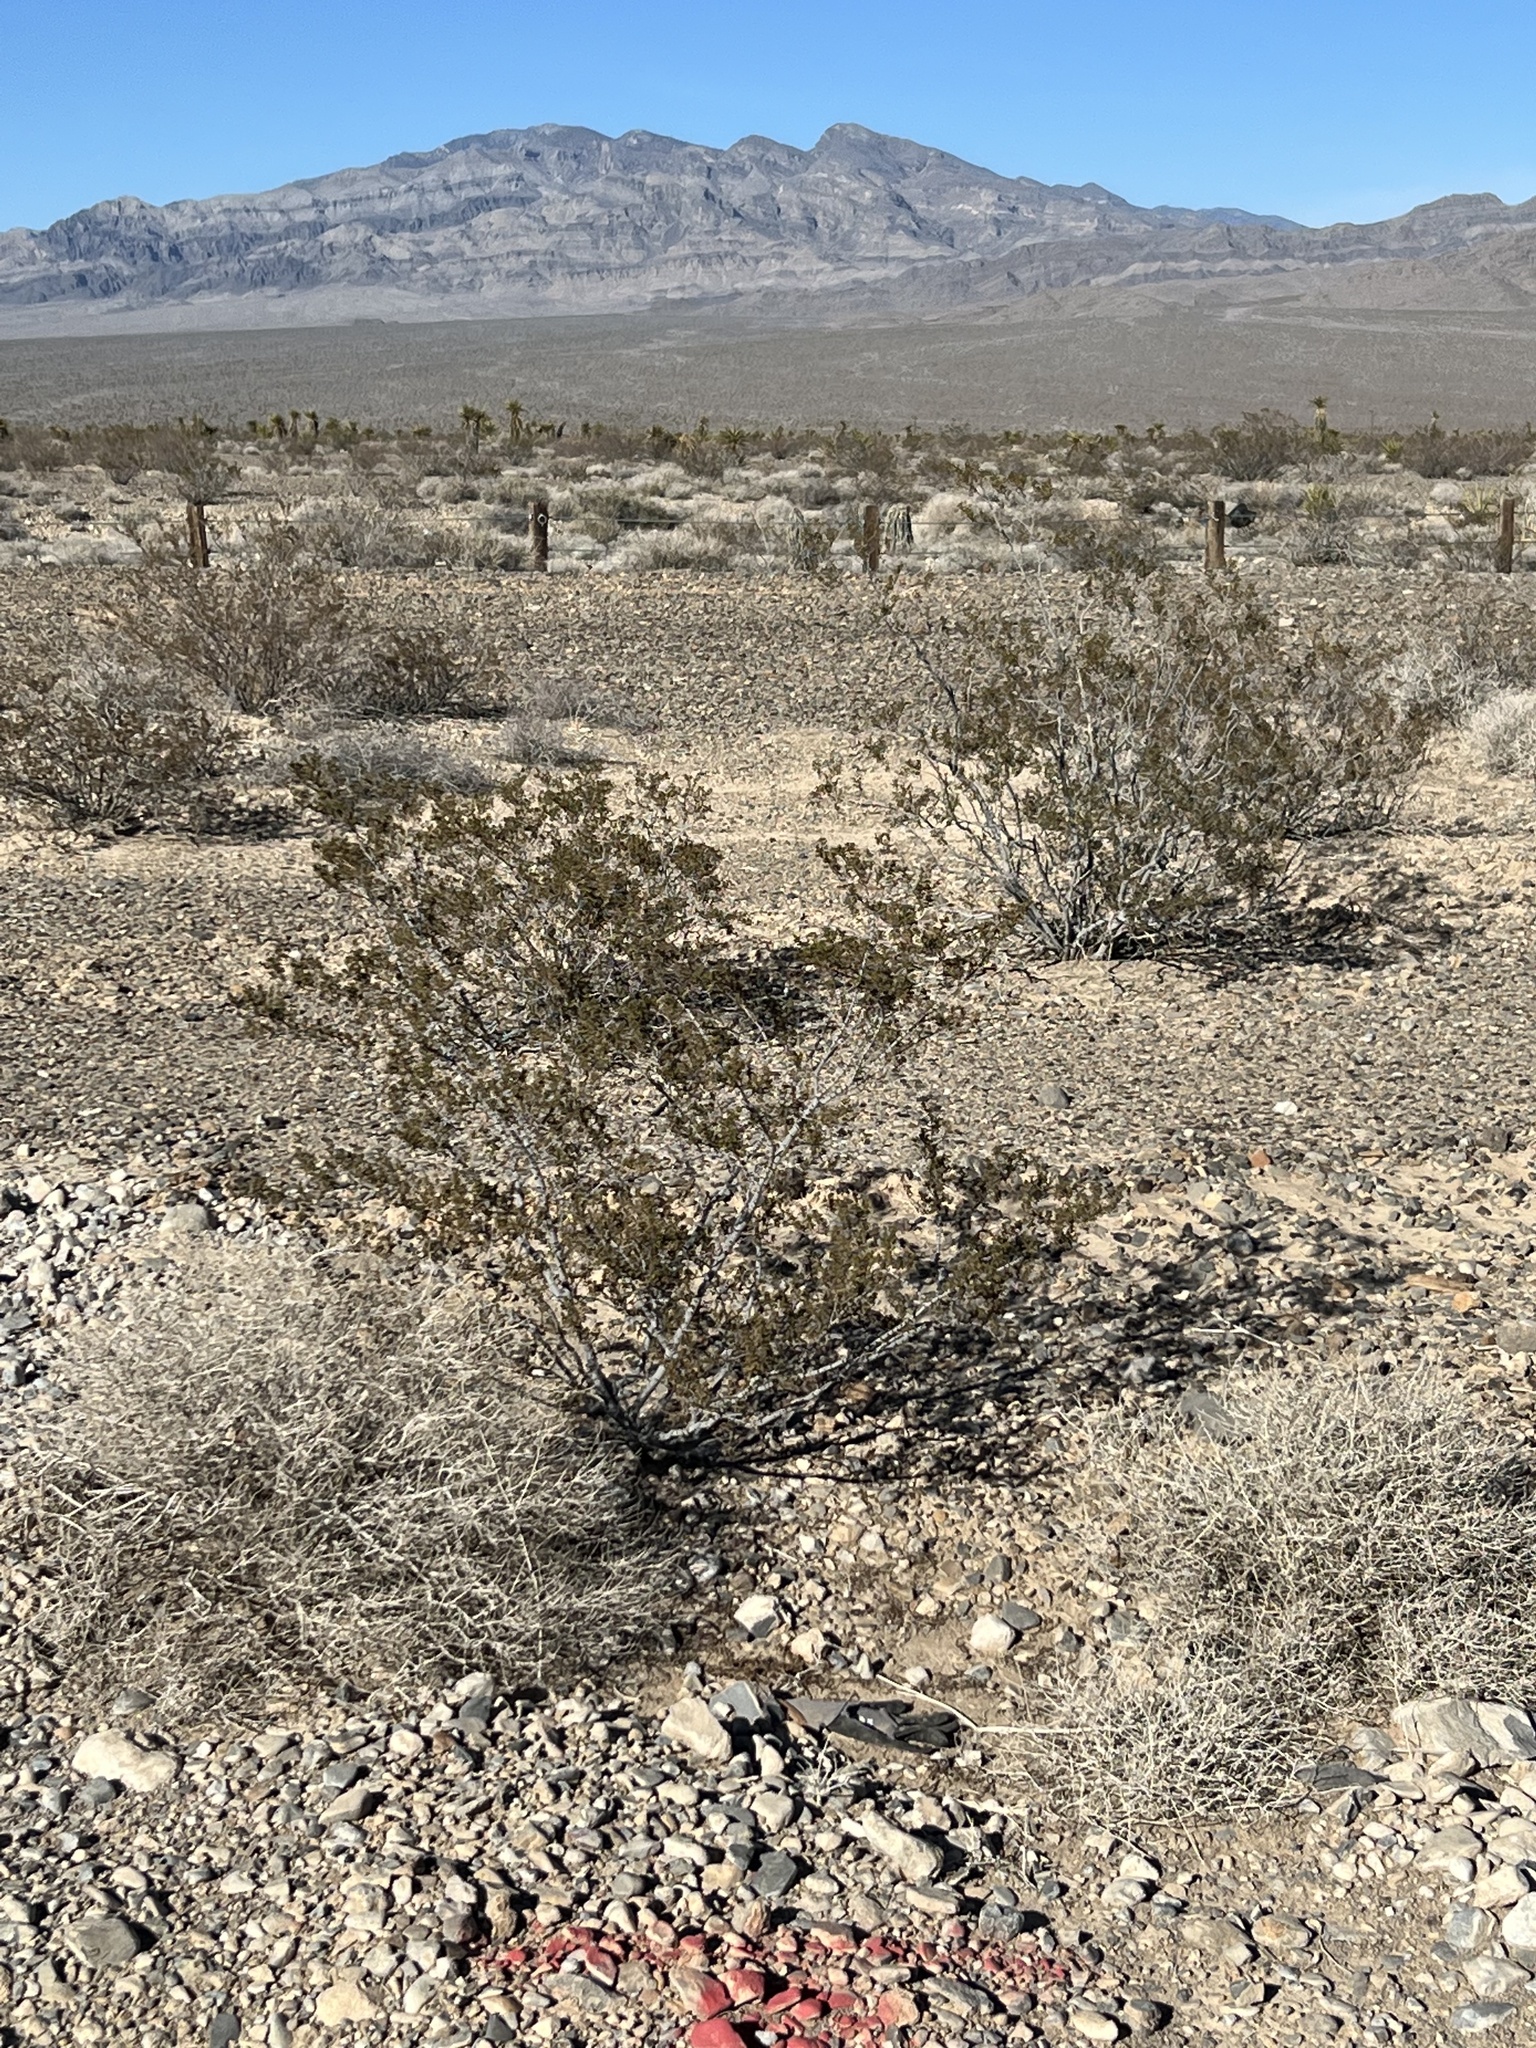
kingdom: Plantae
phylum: Tracheophyta
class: Magnoliopsida
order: Zygophyllales
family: Zygophyllaceae
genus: Larrea
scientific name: Larrea tridentata
